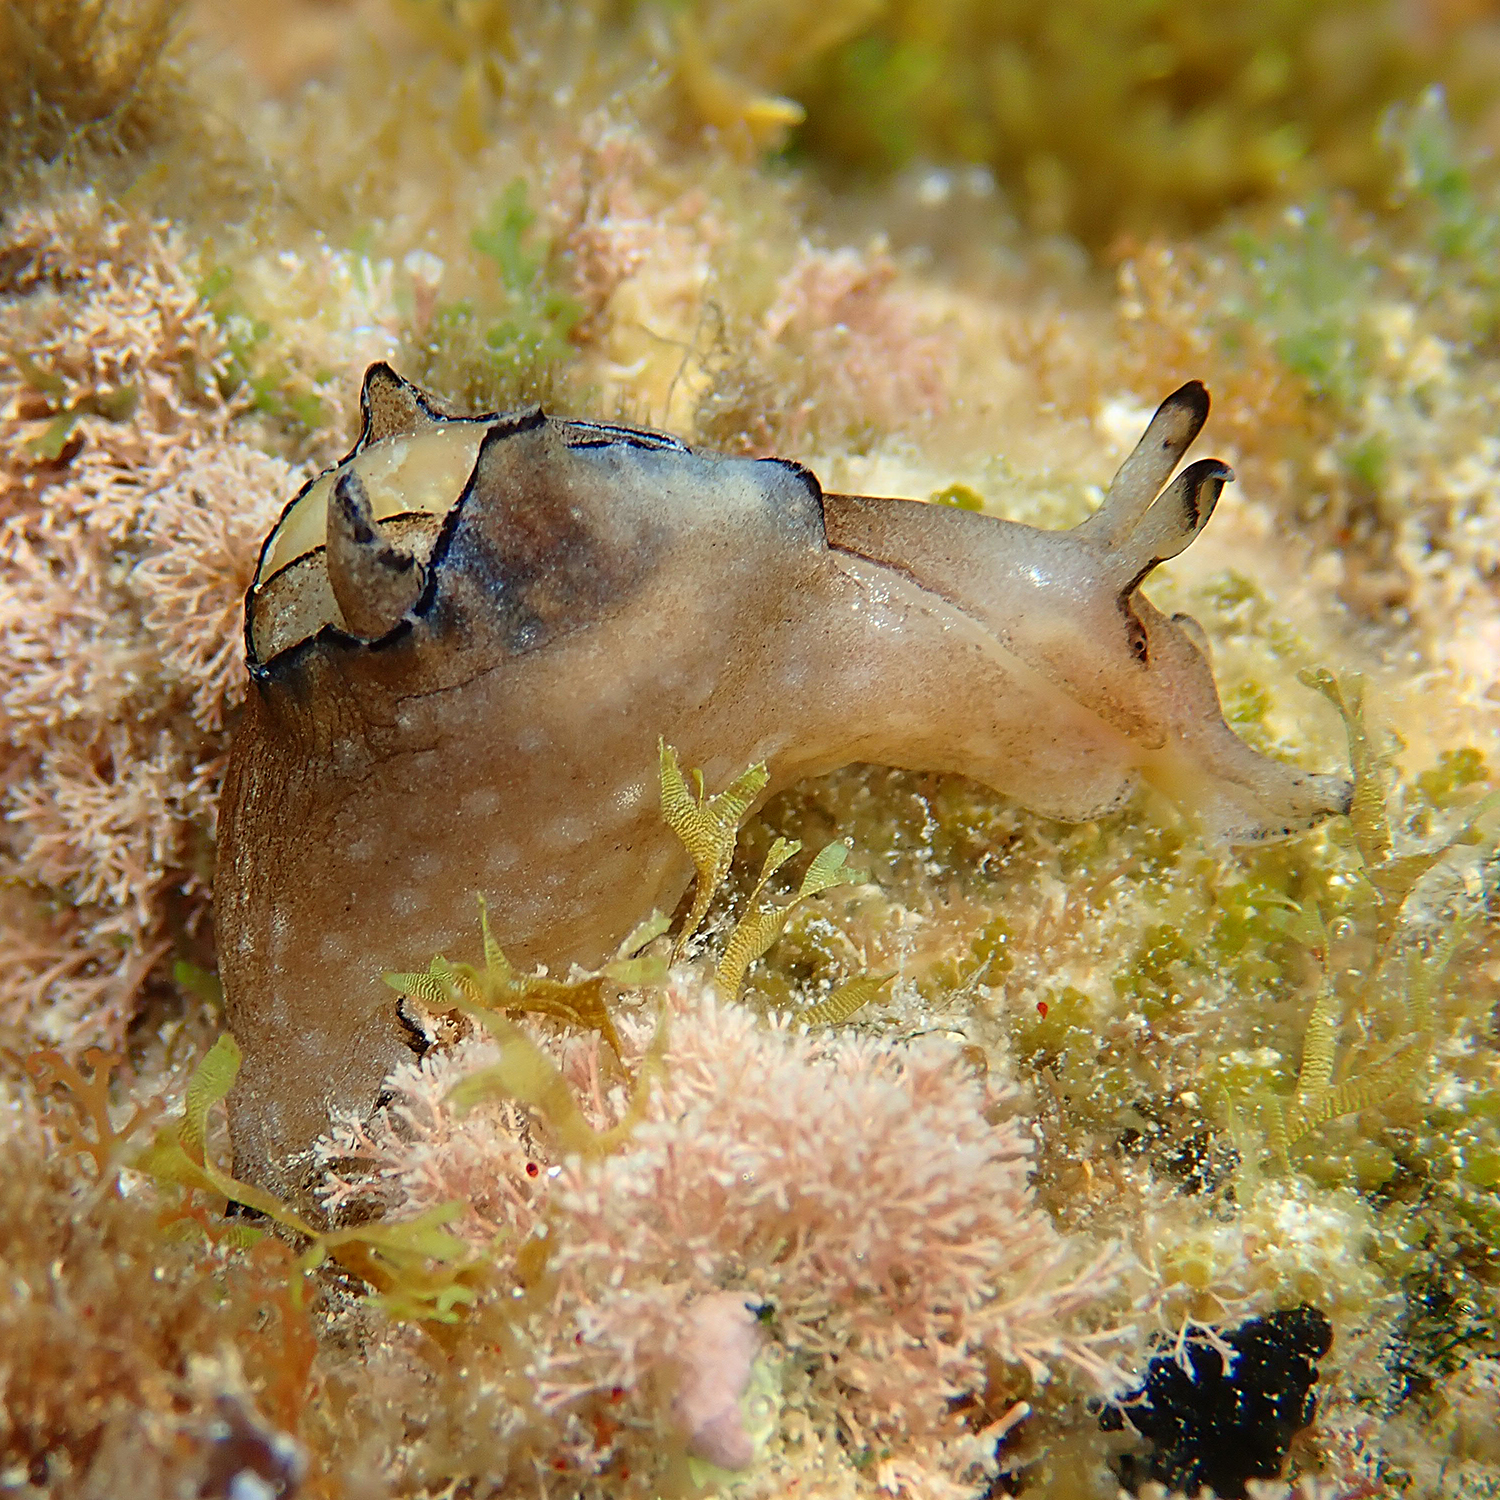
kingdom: Animalia
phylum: Mollusca
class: Gastropoda
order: Aplysiida
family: Aplysiidae
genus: Aplysia
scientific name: Aplysia concava
